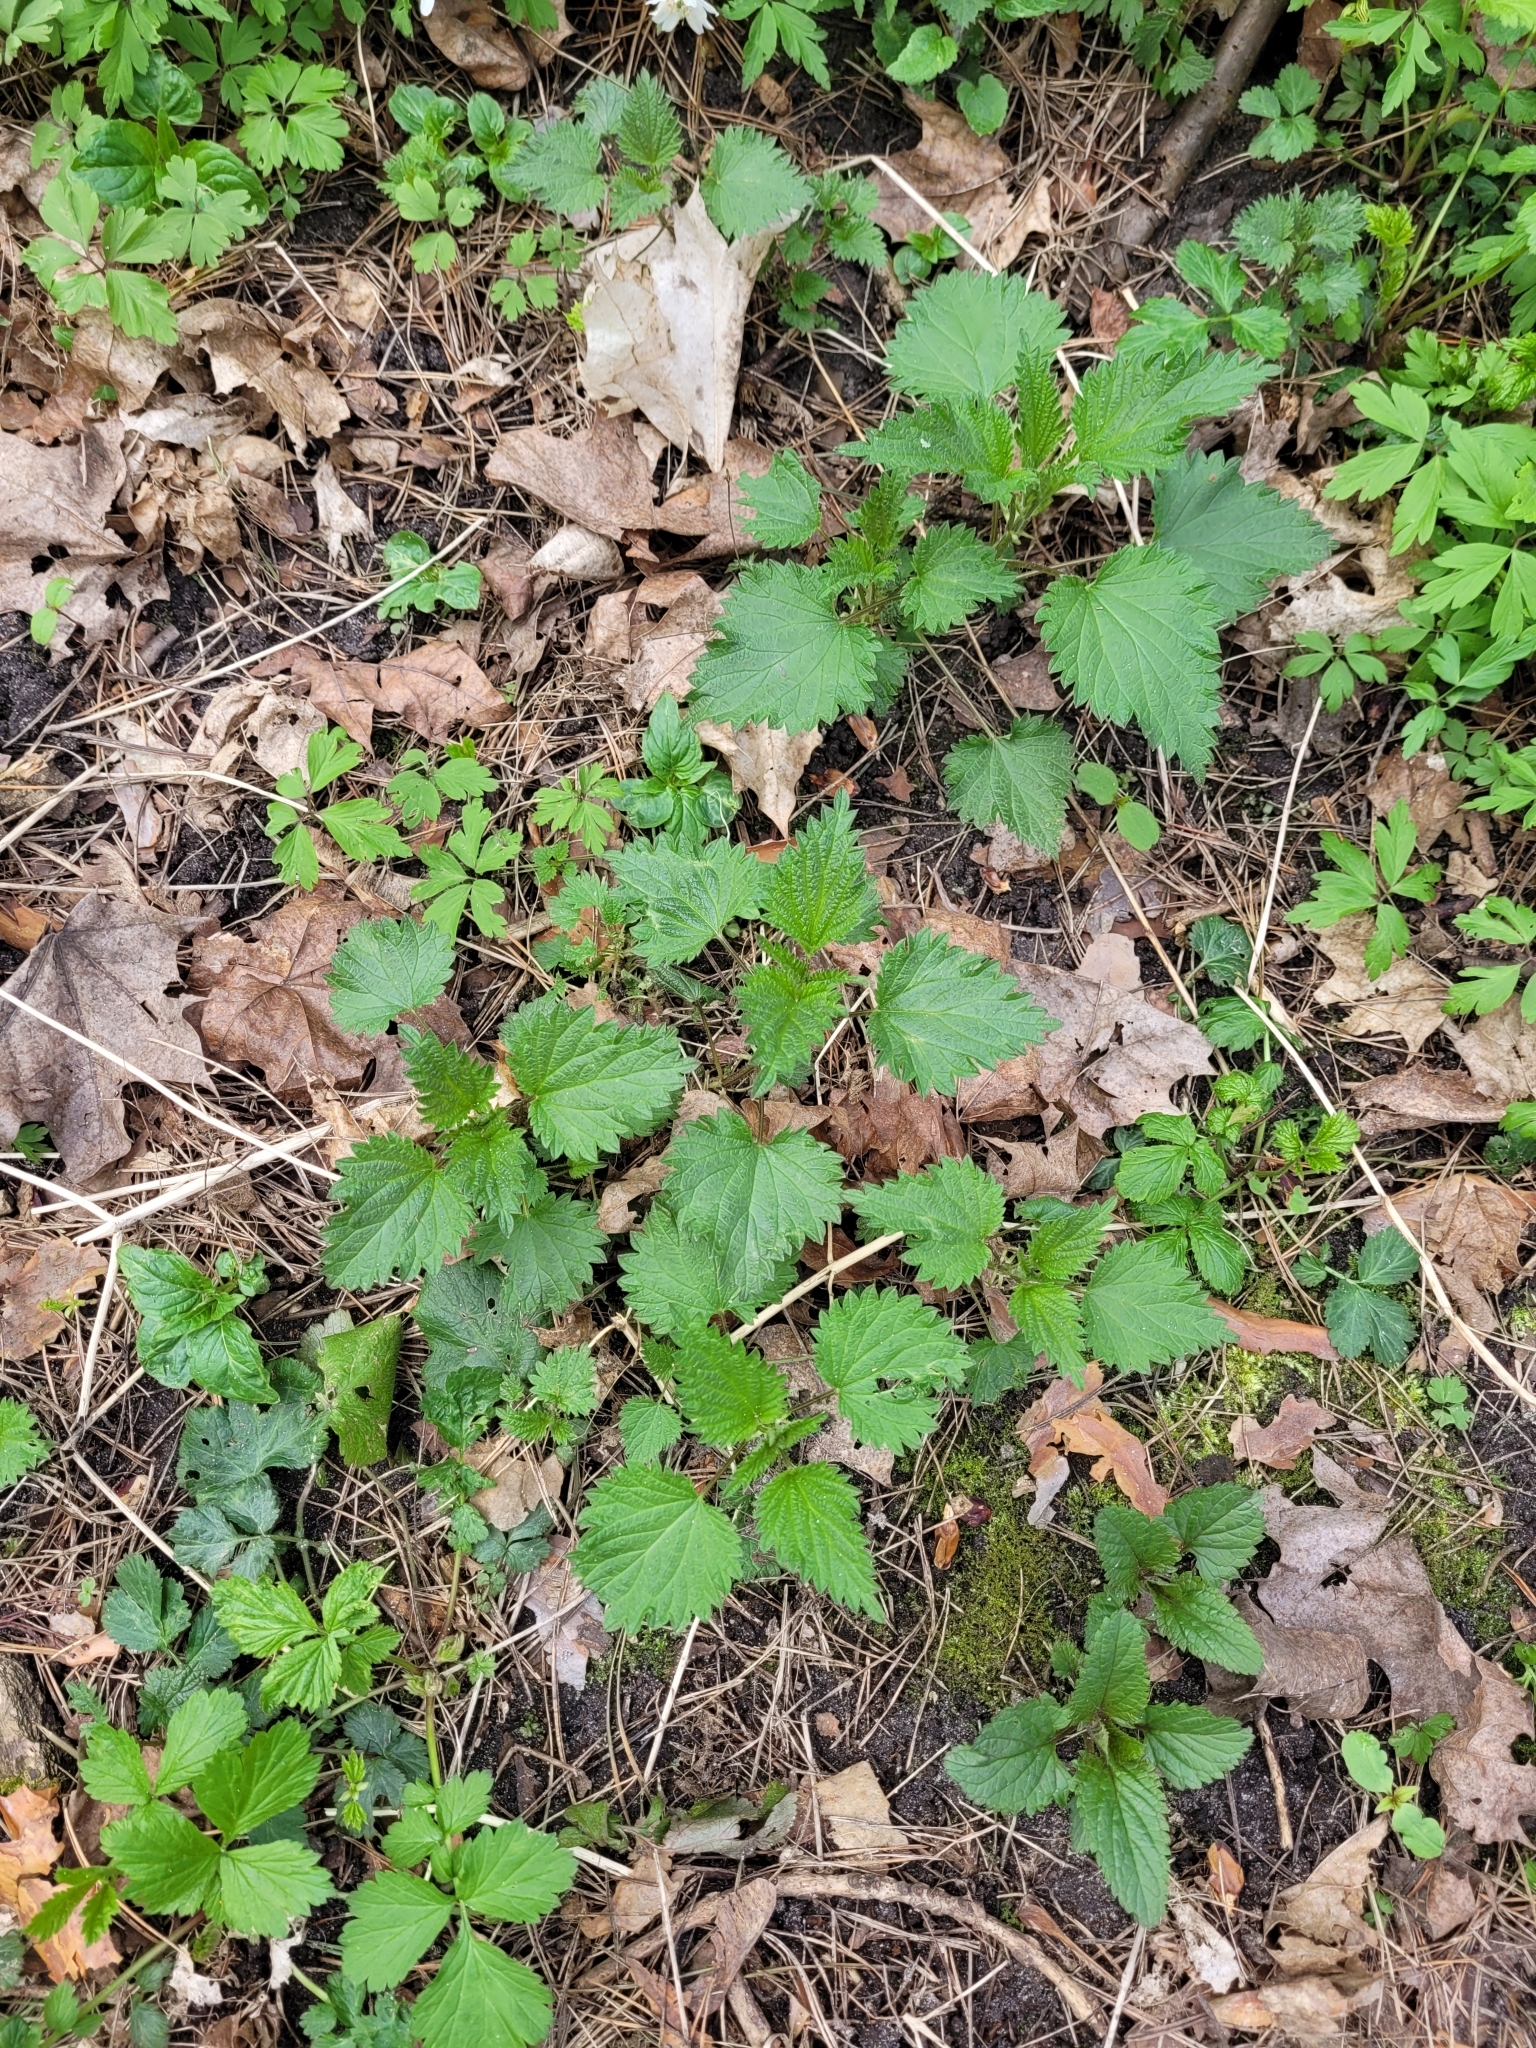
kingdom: Plantae
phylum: Tracheophyta
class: Magnoliopsida
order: Rosales
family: Urticaceae
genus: Urtica
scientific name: Urtica dioica
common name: Common nettle
